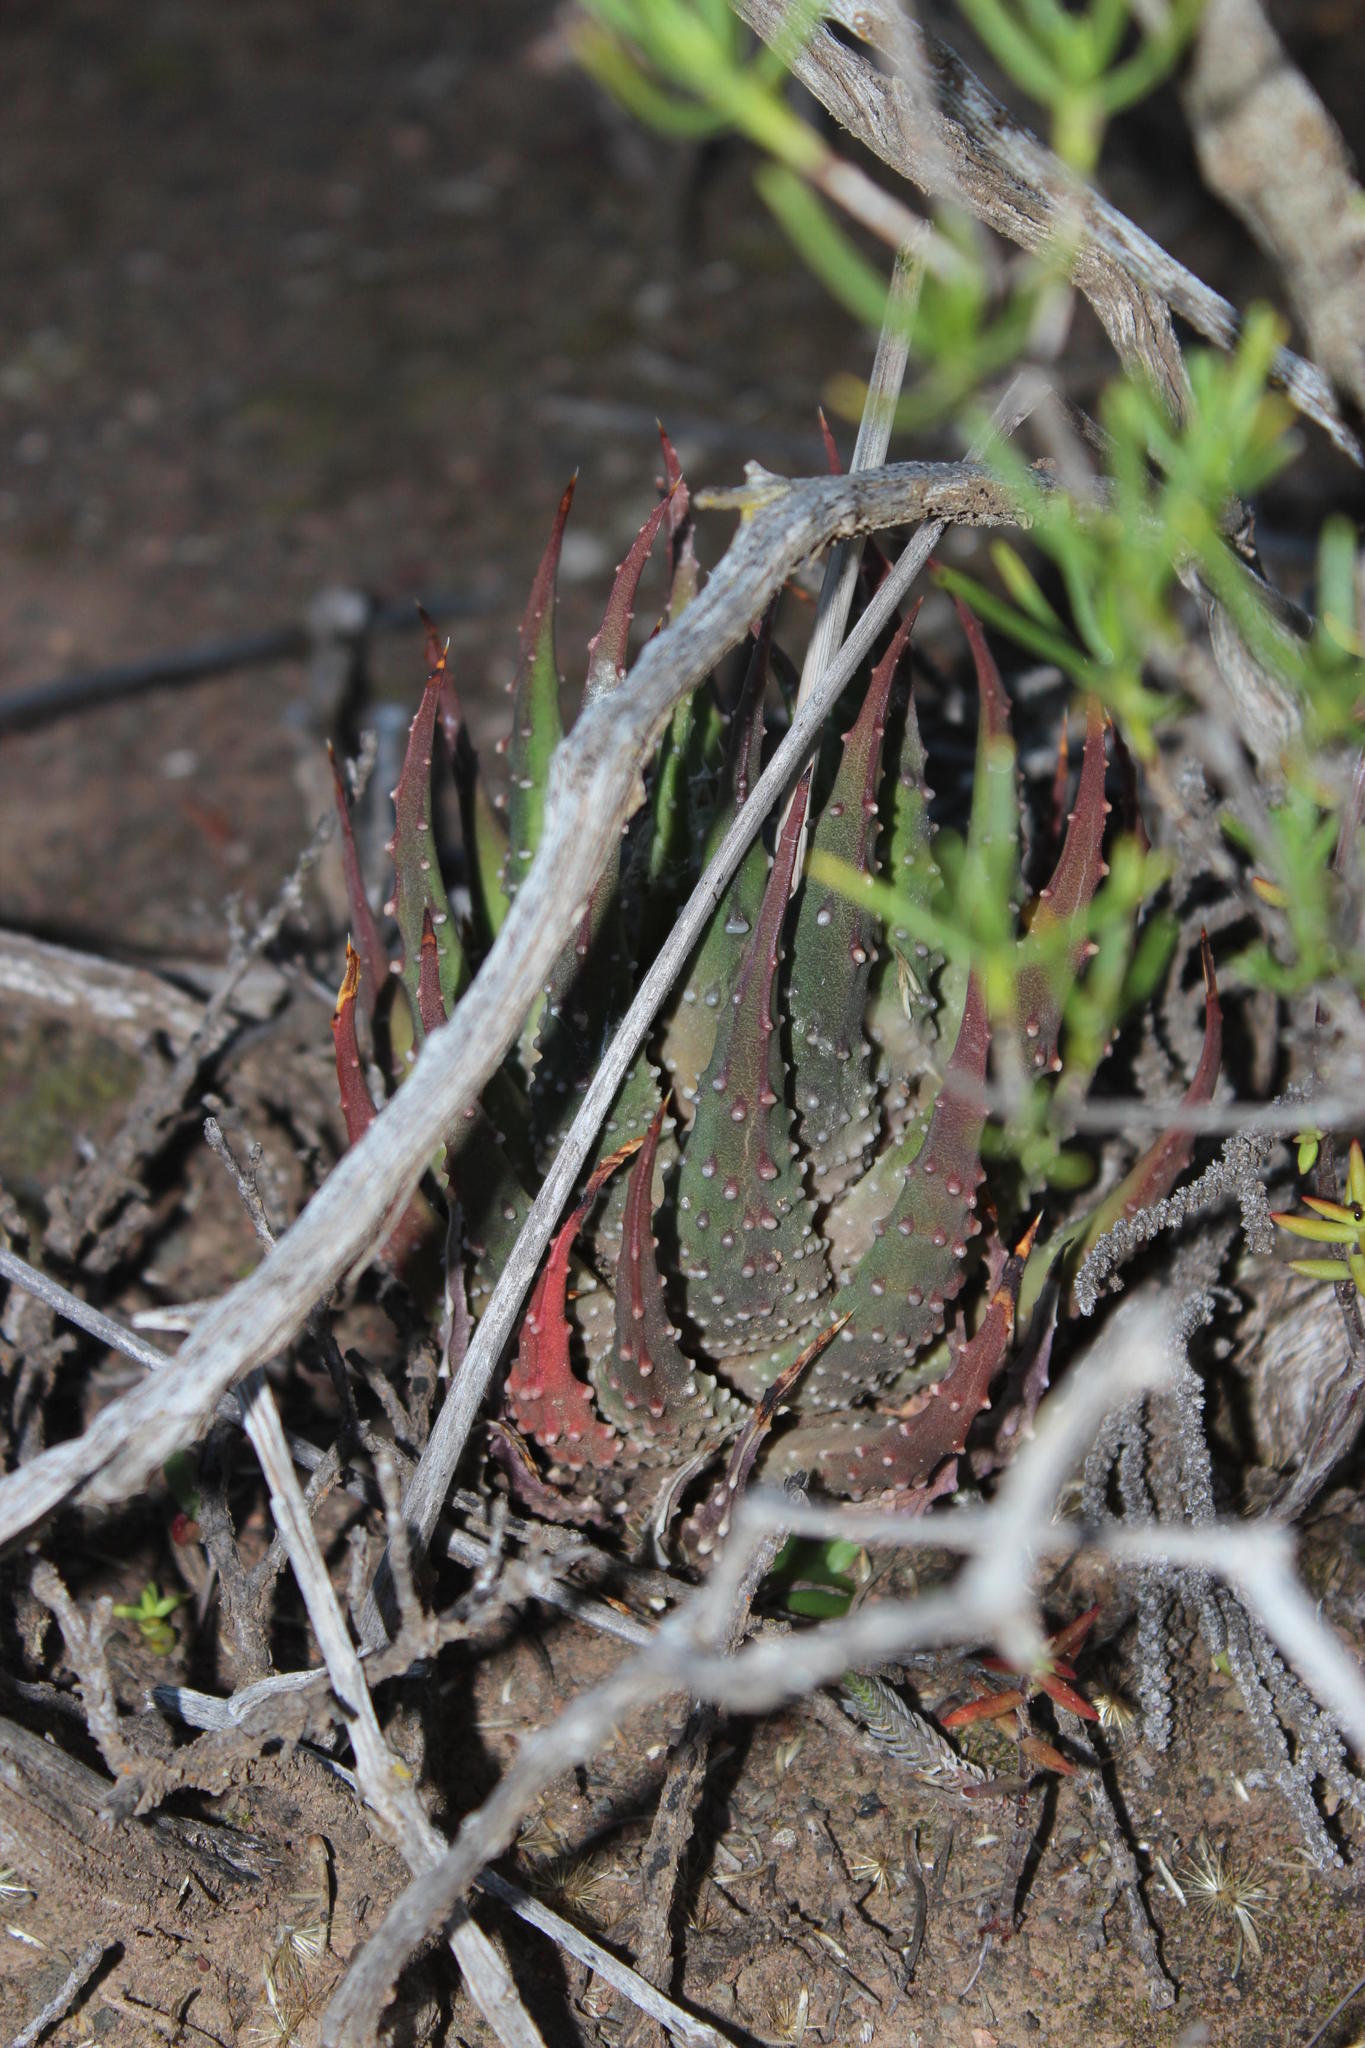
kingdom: Plantae
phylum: Tracheophyta
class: Liliopsida
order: Asparagales
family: Asphodelaceae
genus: Tulista
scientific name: Tulista pumila
